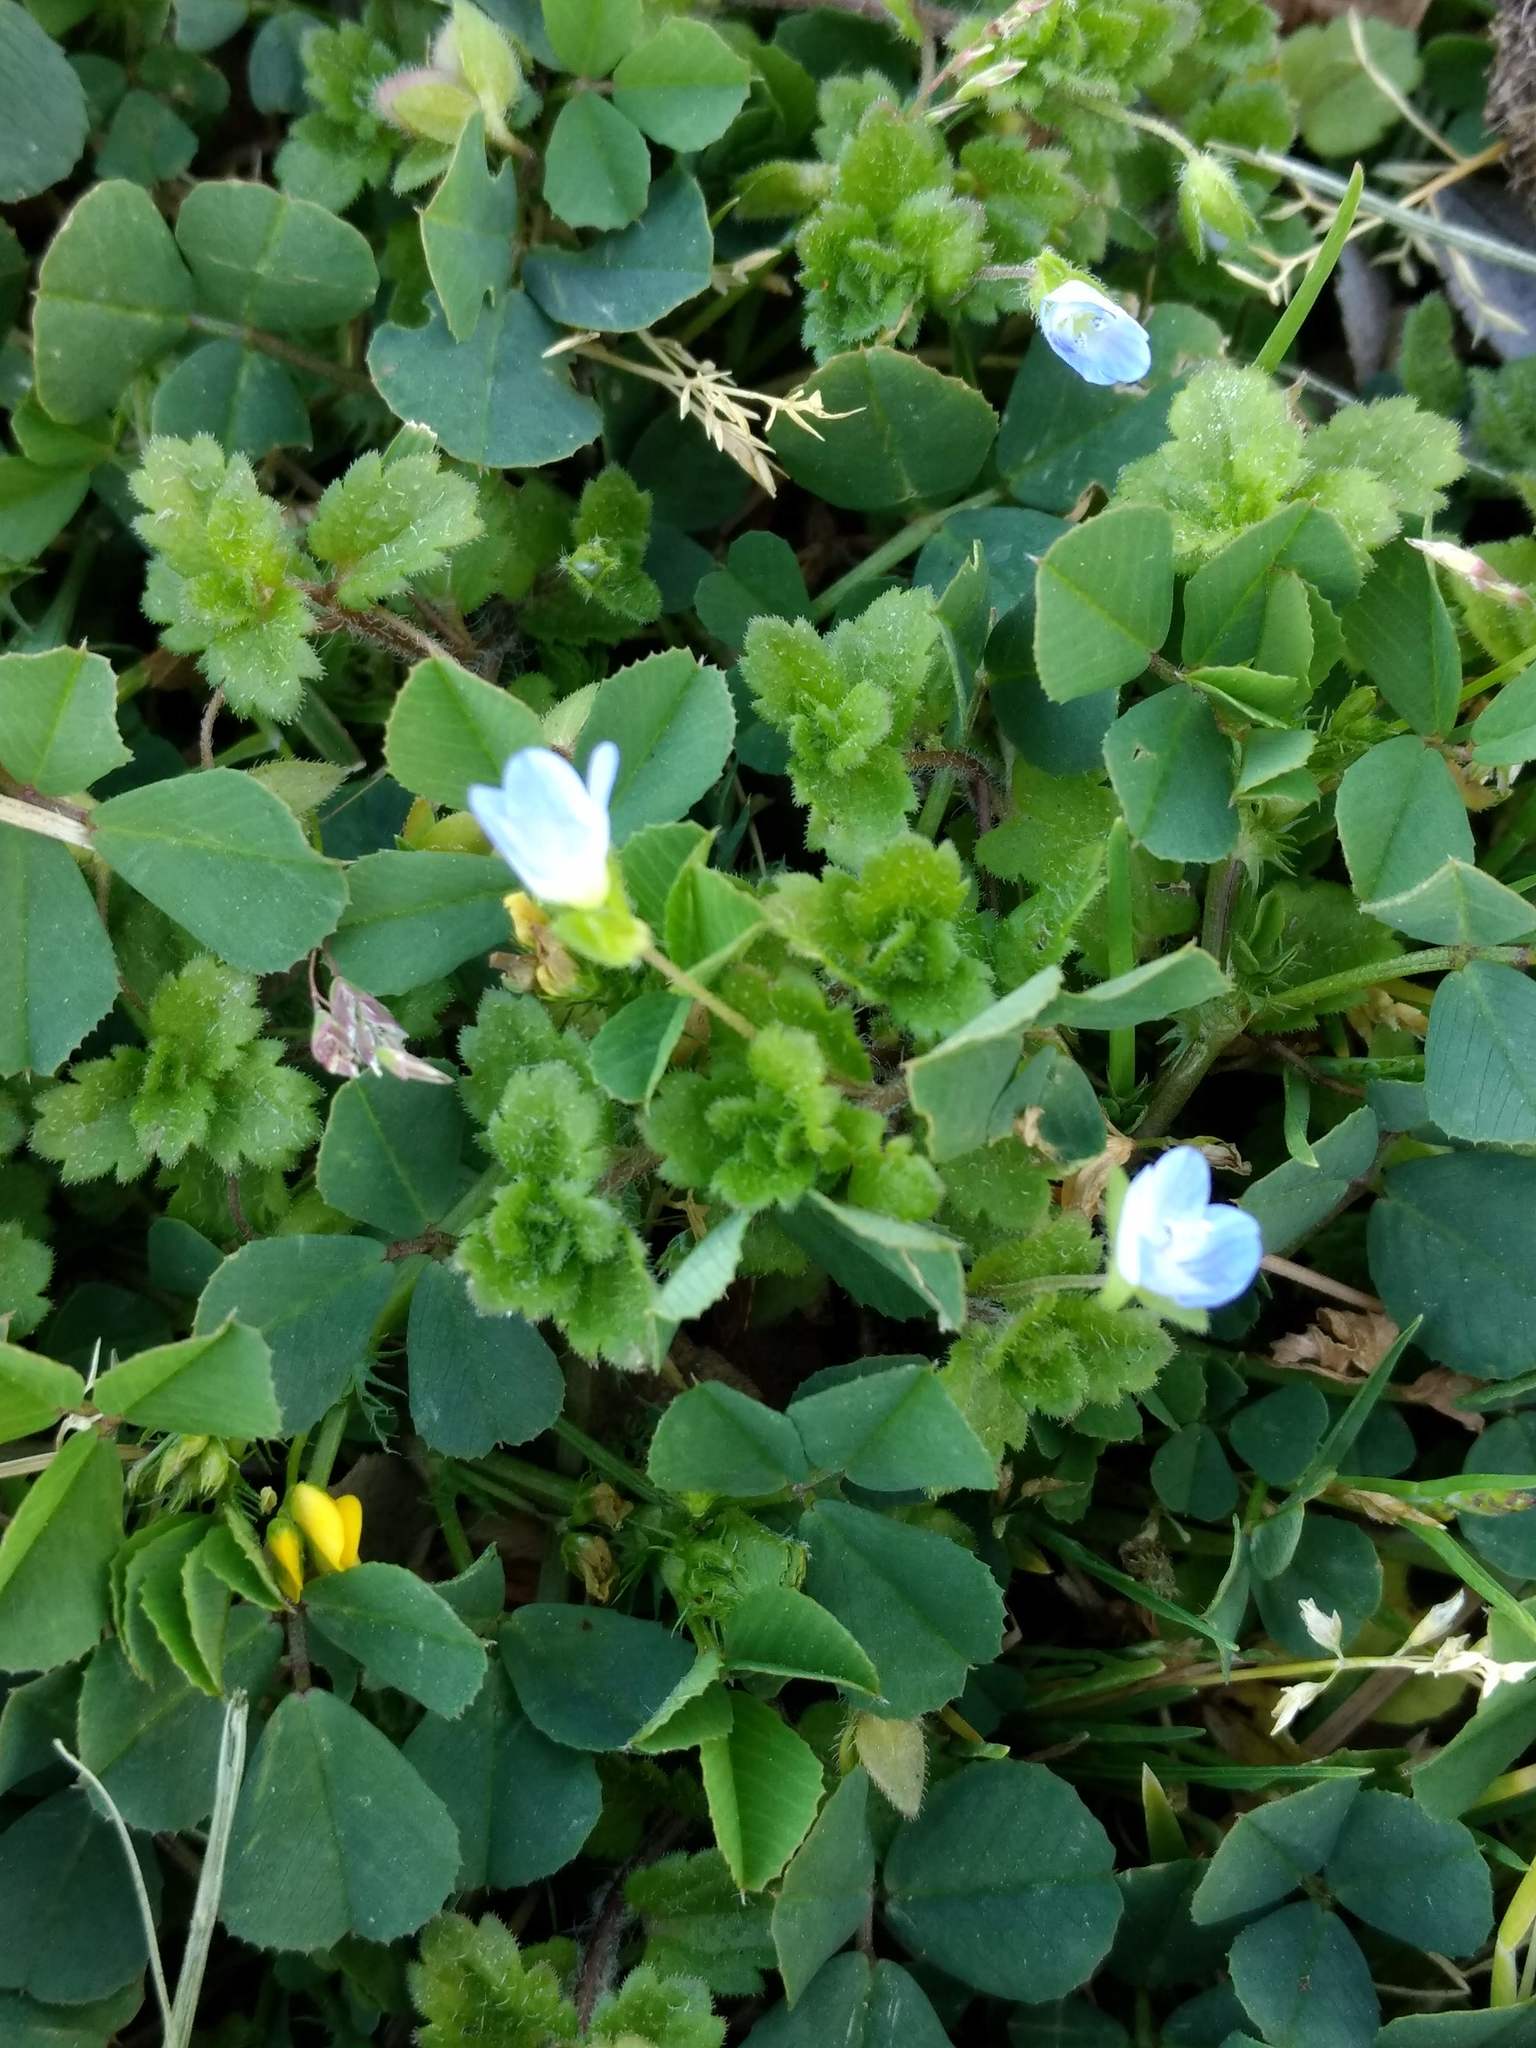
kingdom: Plantae
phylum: Tracheophyta
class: Magnoliopsida
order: Lamiales
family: Plantaginaceae
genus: Veronica
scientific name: Veronica persica
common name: Common field-speedwell
